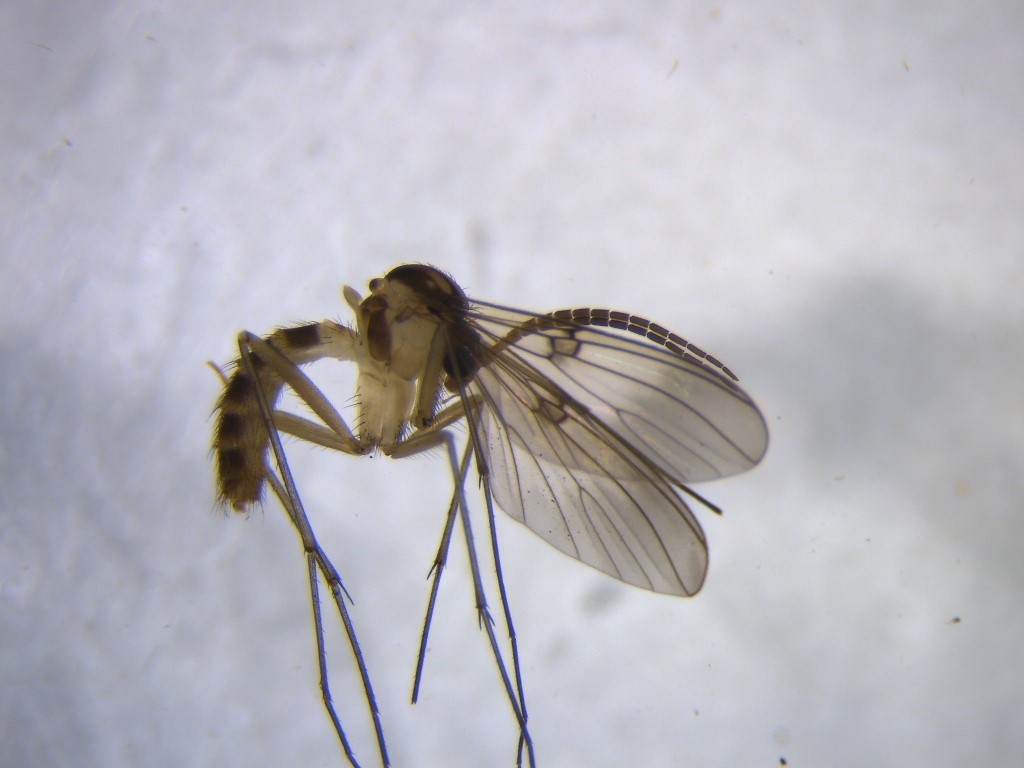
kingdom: Animalia
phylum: Arthropoda
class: Insecta
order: Diptera
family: Mycetophilidae
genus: Mycomya
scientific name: Mycomya flavilatera
